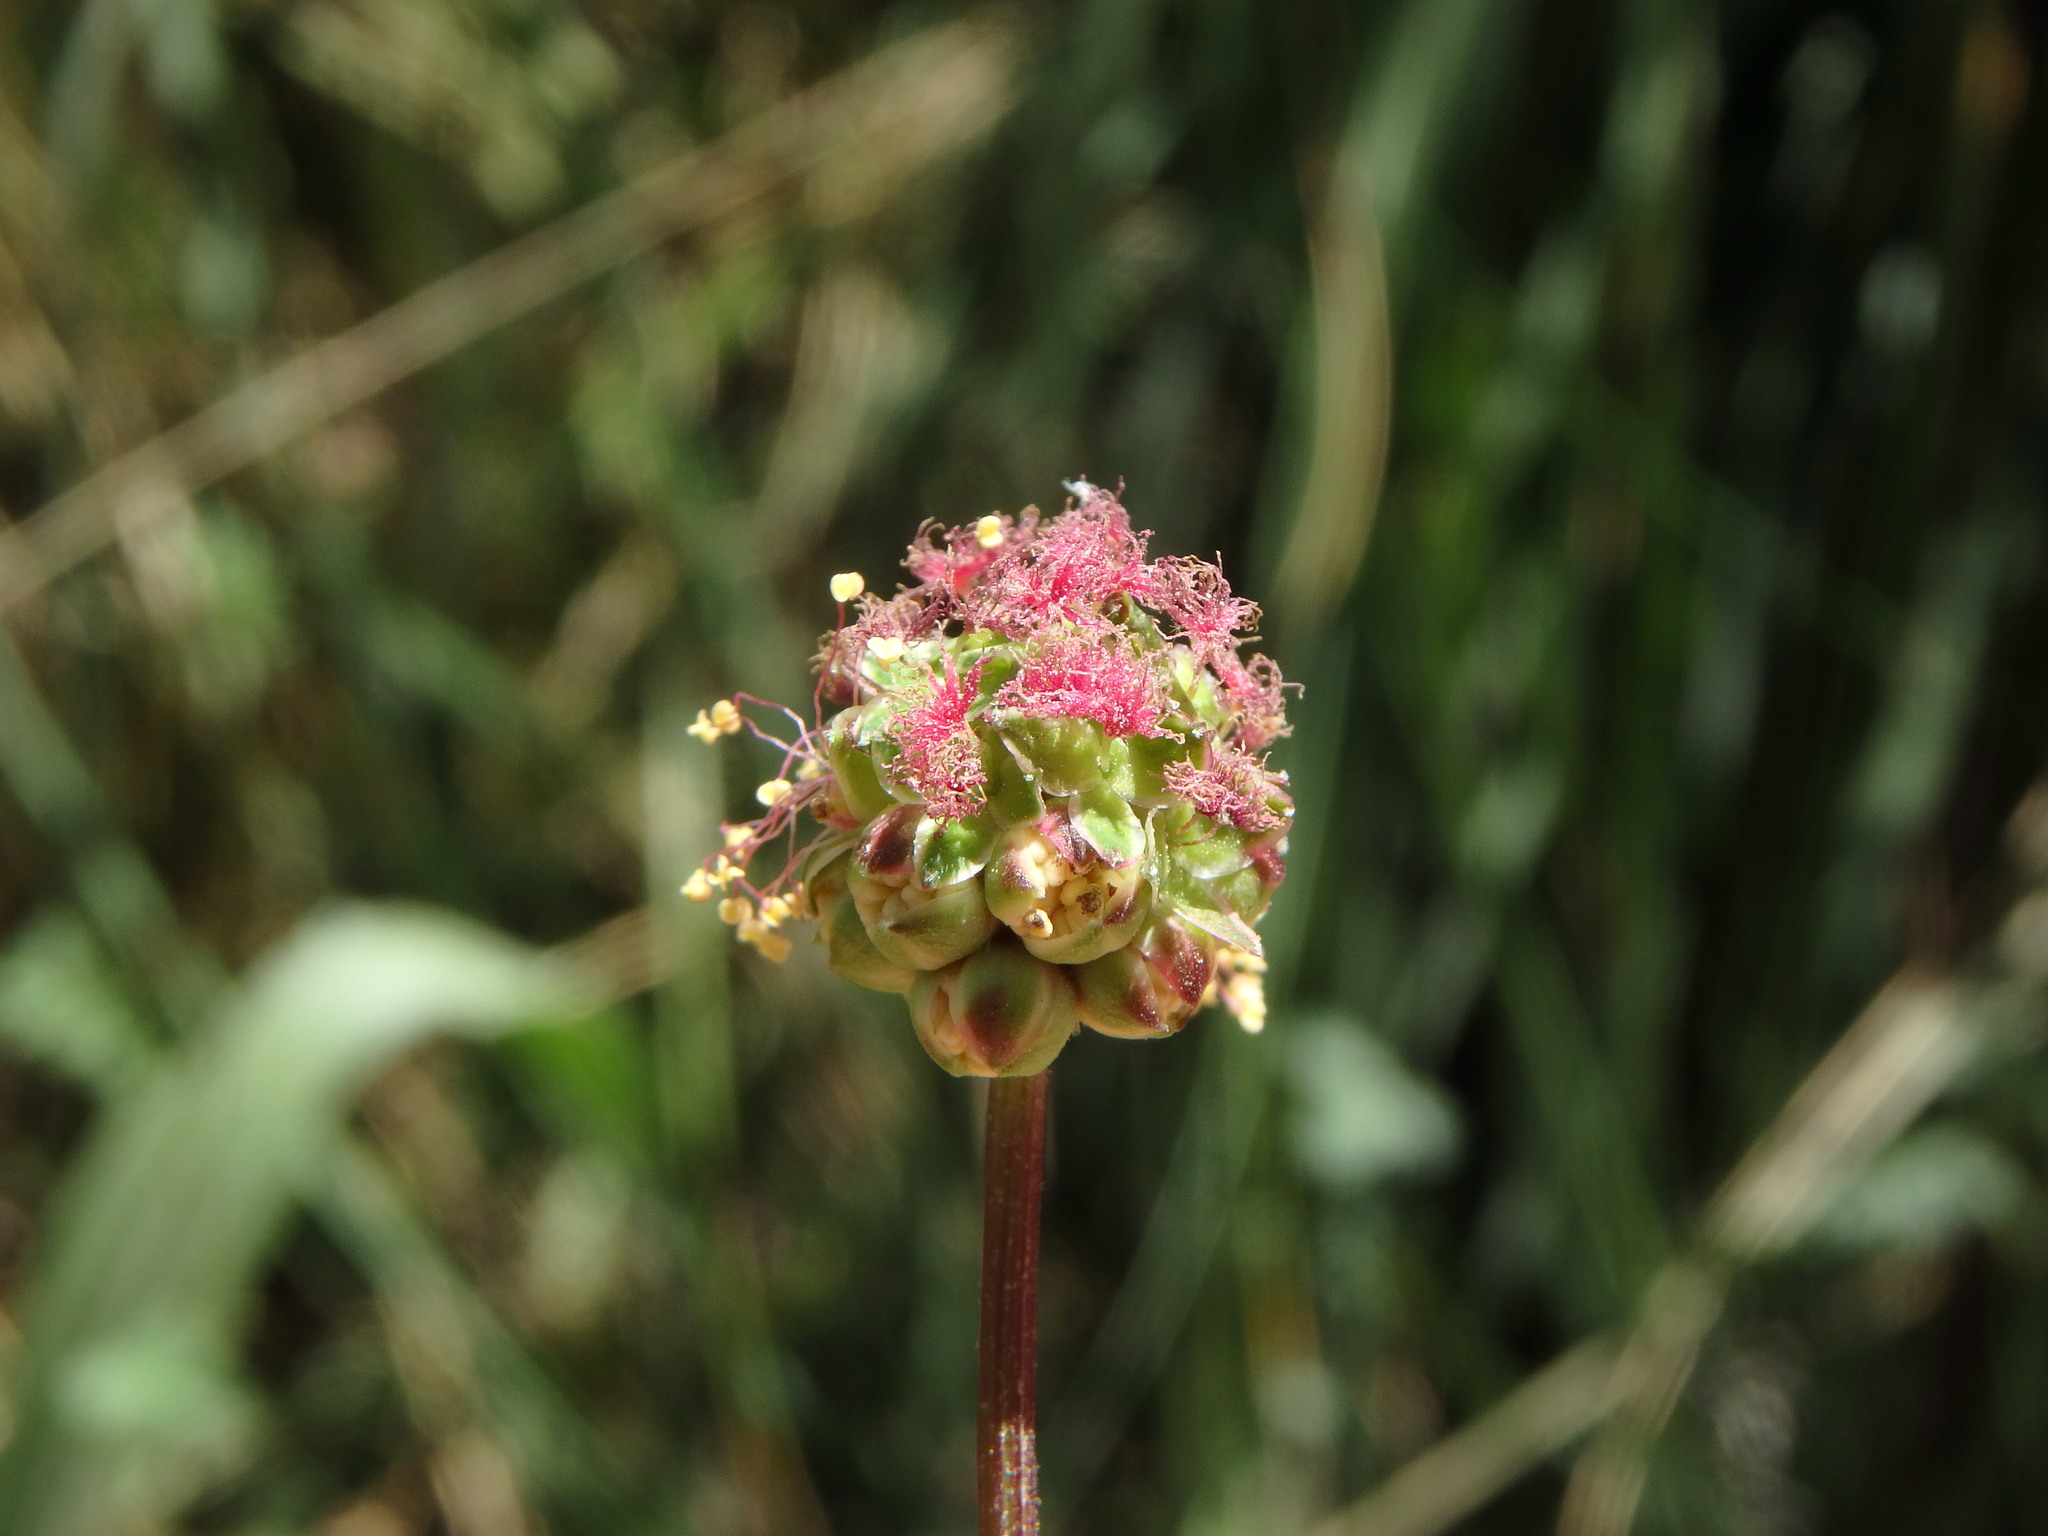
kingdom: Plantae
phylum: Tracheophyta
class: Magnoliopsida
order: Rosales
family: Rosaceae
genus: Poterium
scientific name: Poterium sanguisorba
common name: Salad burnet
